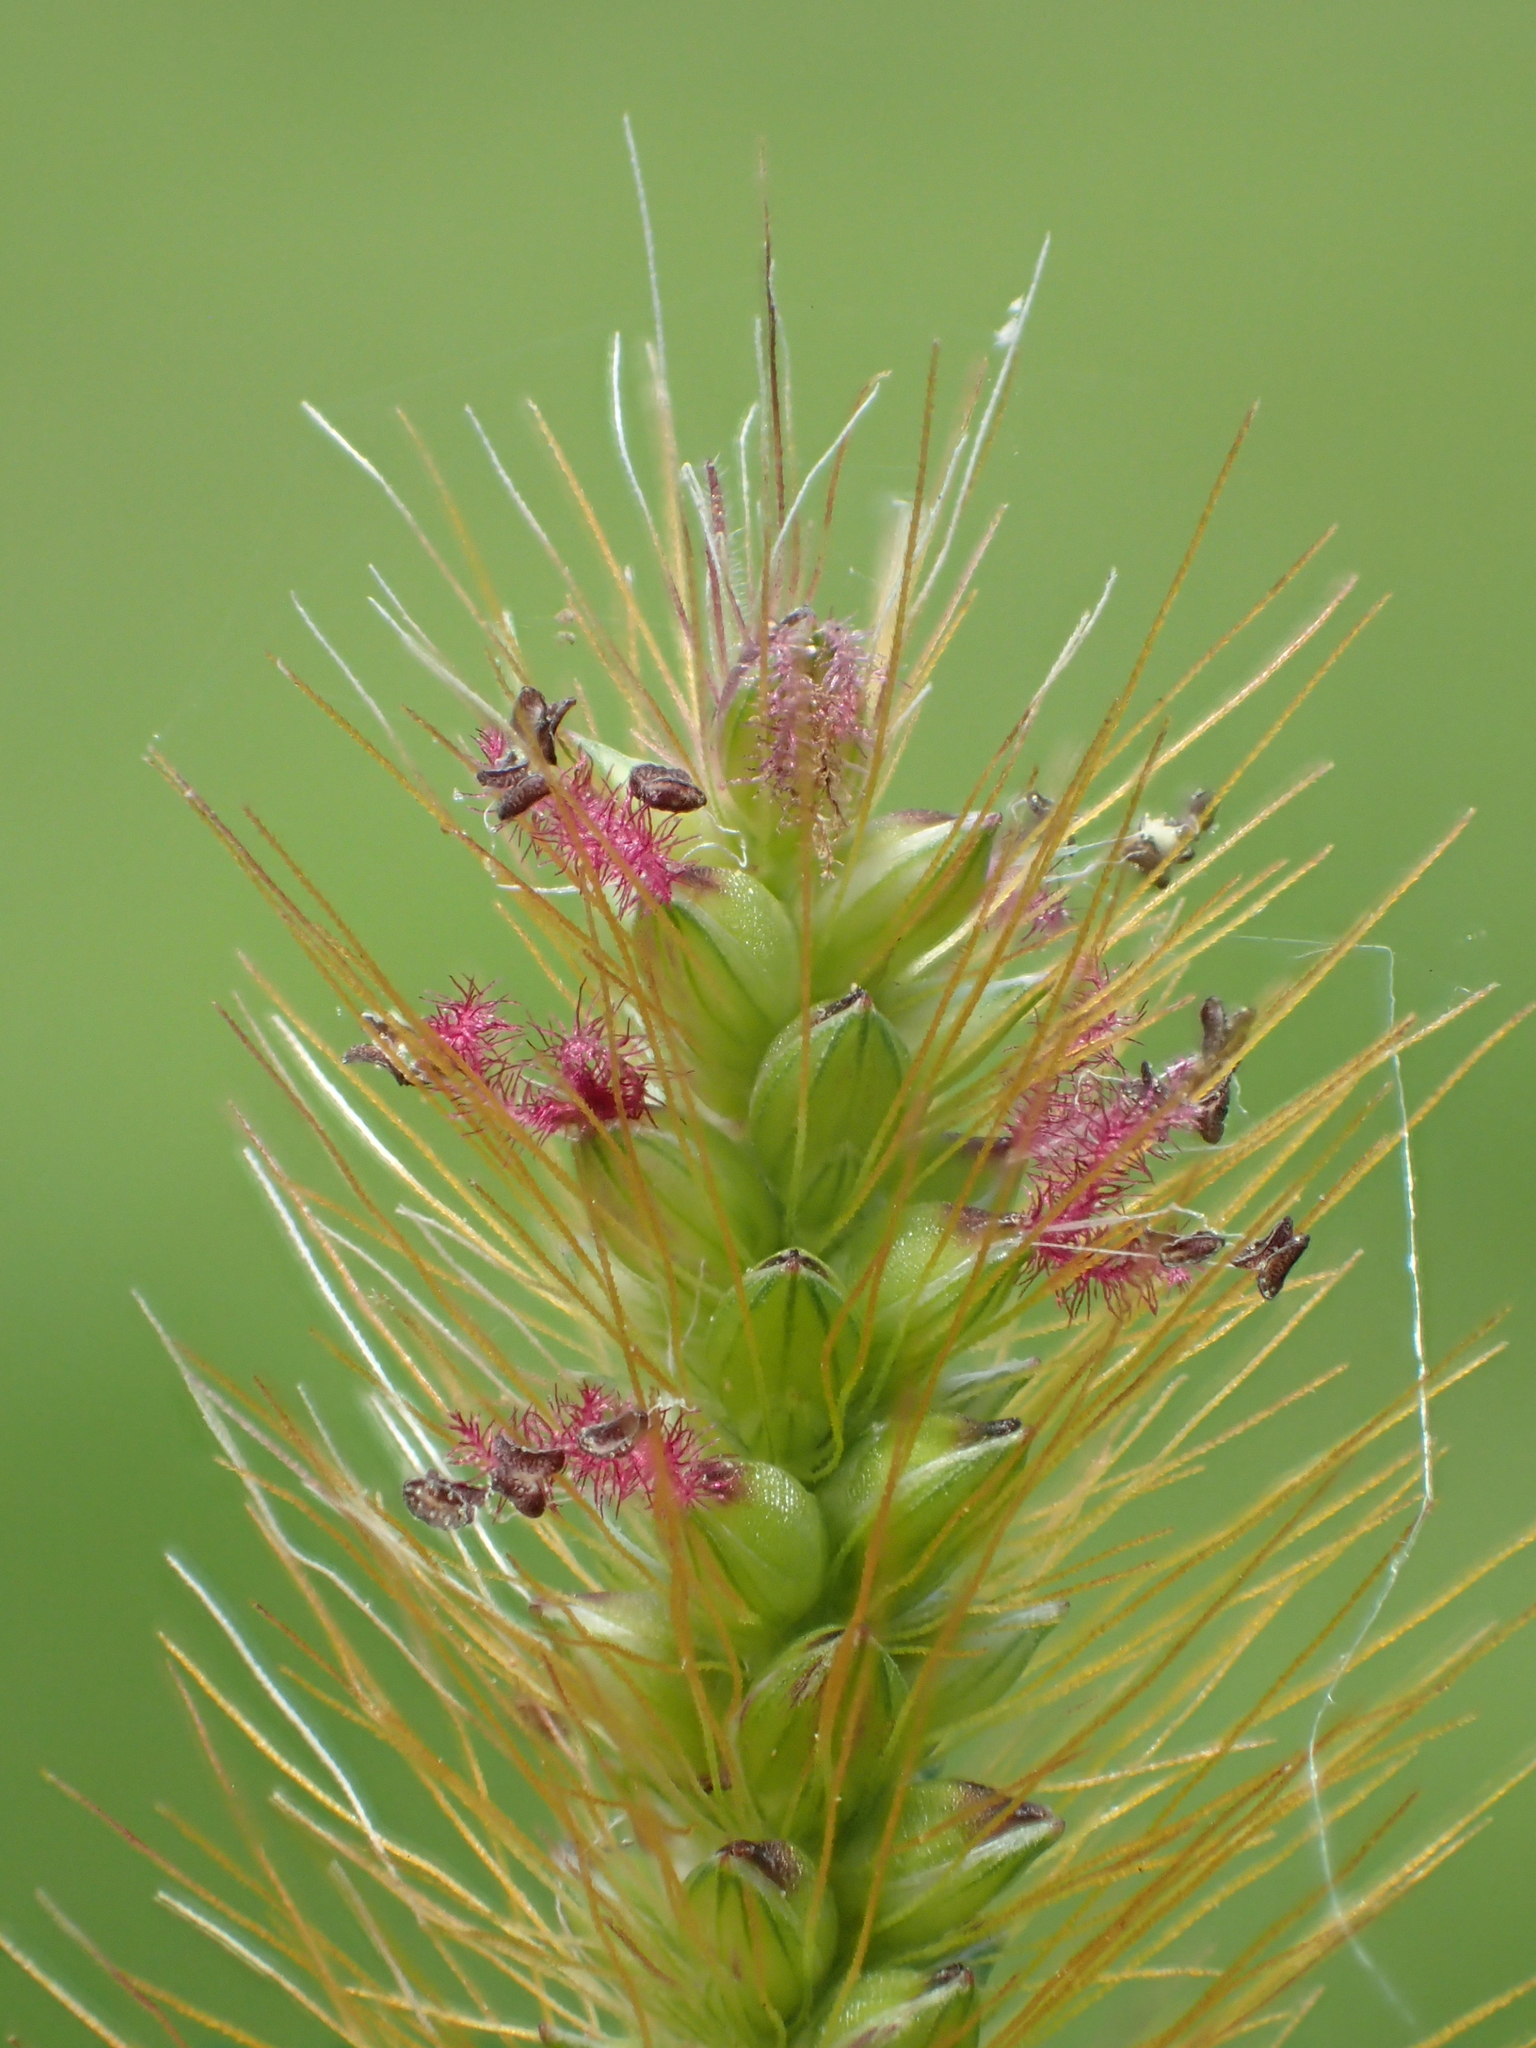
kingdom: Plantae
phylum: Tracheophyta
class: Liliopsida
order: Poales
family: Poaceae
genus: Setaria
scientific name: Setaria parviflora
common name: Knotroot bristle-grass
